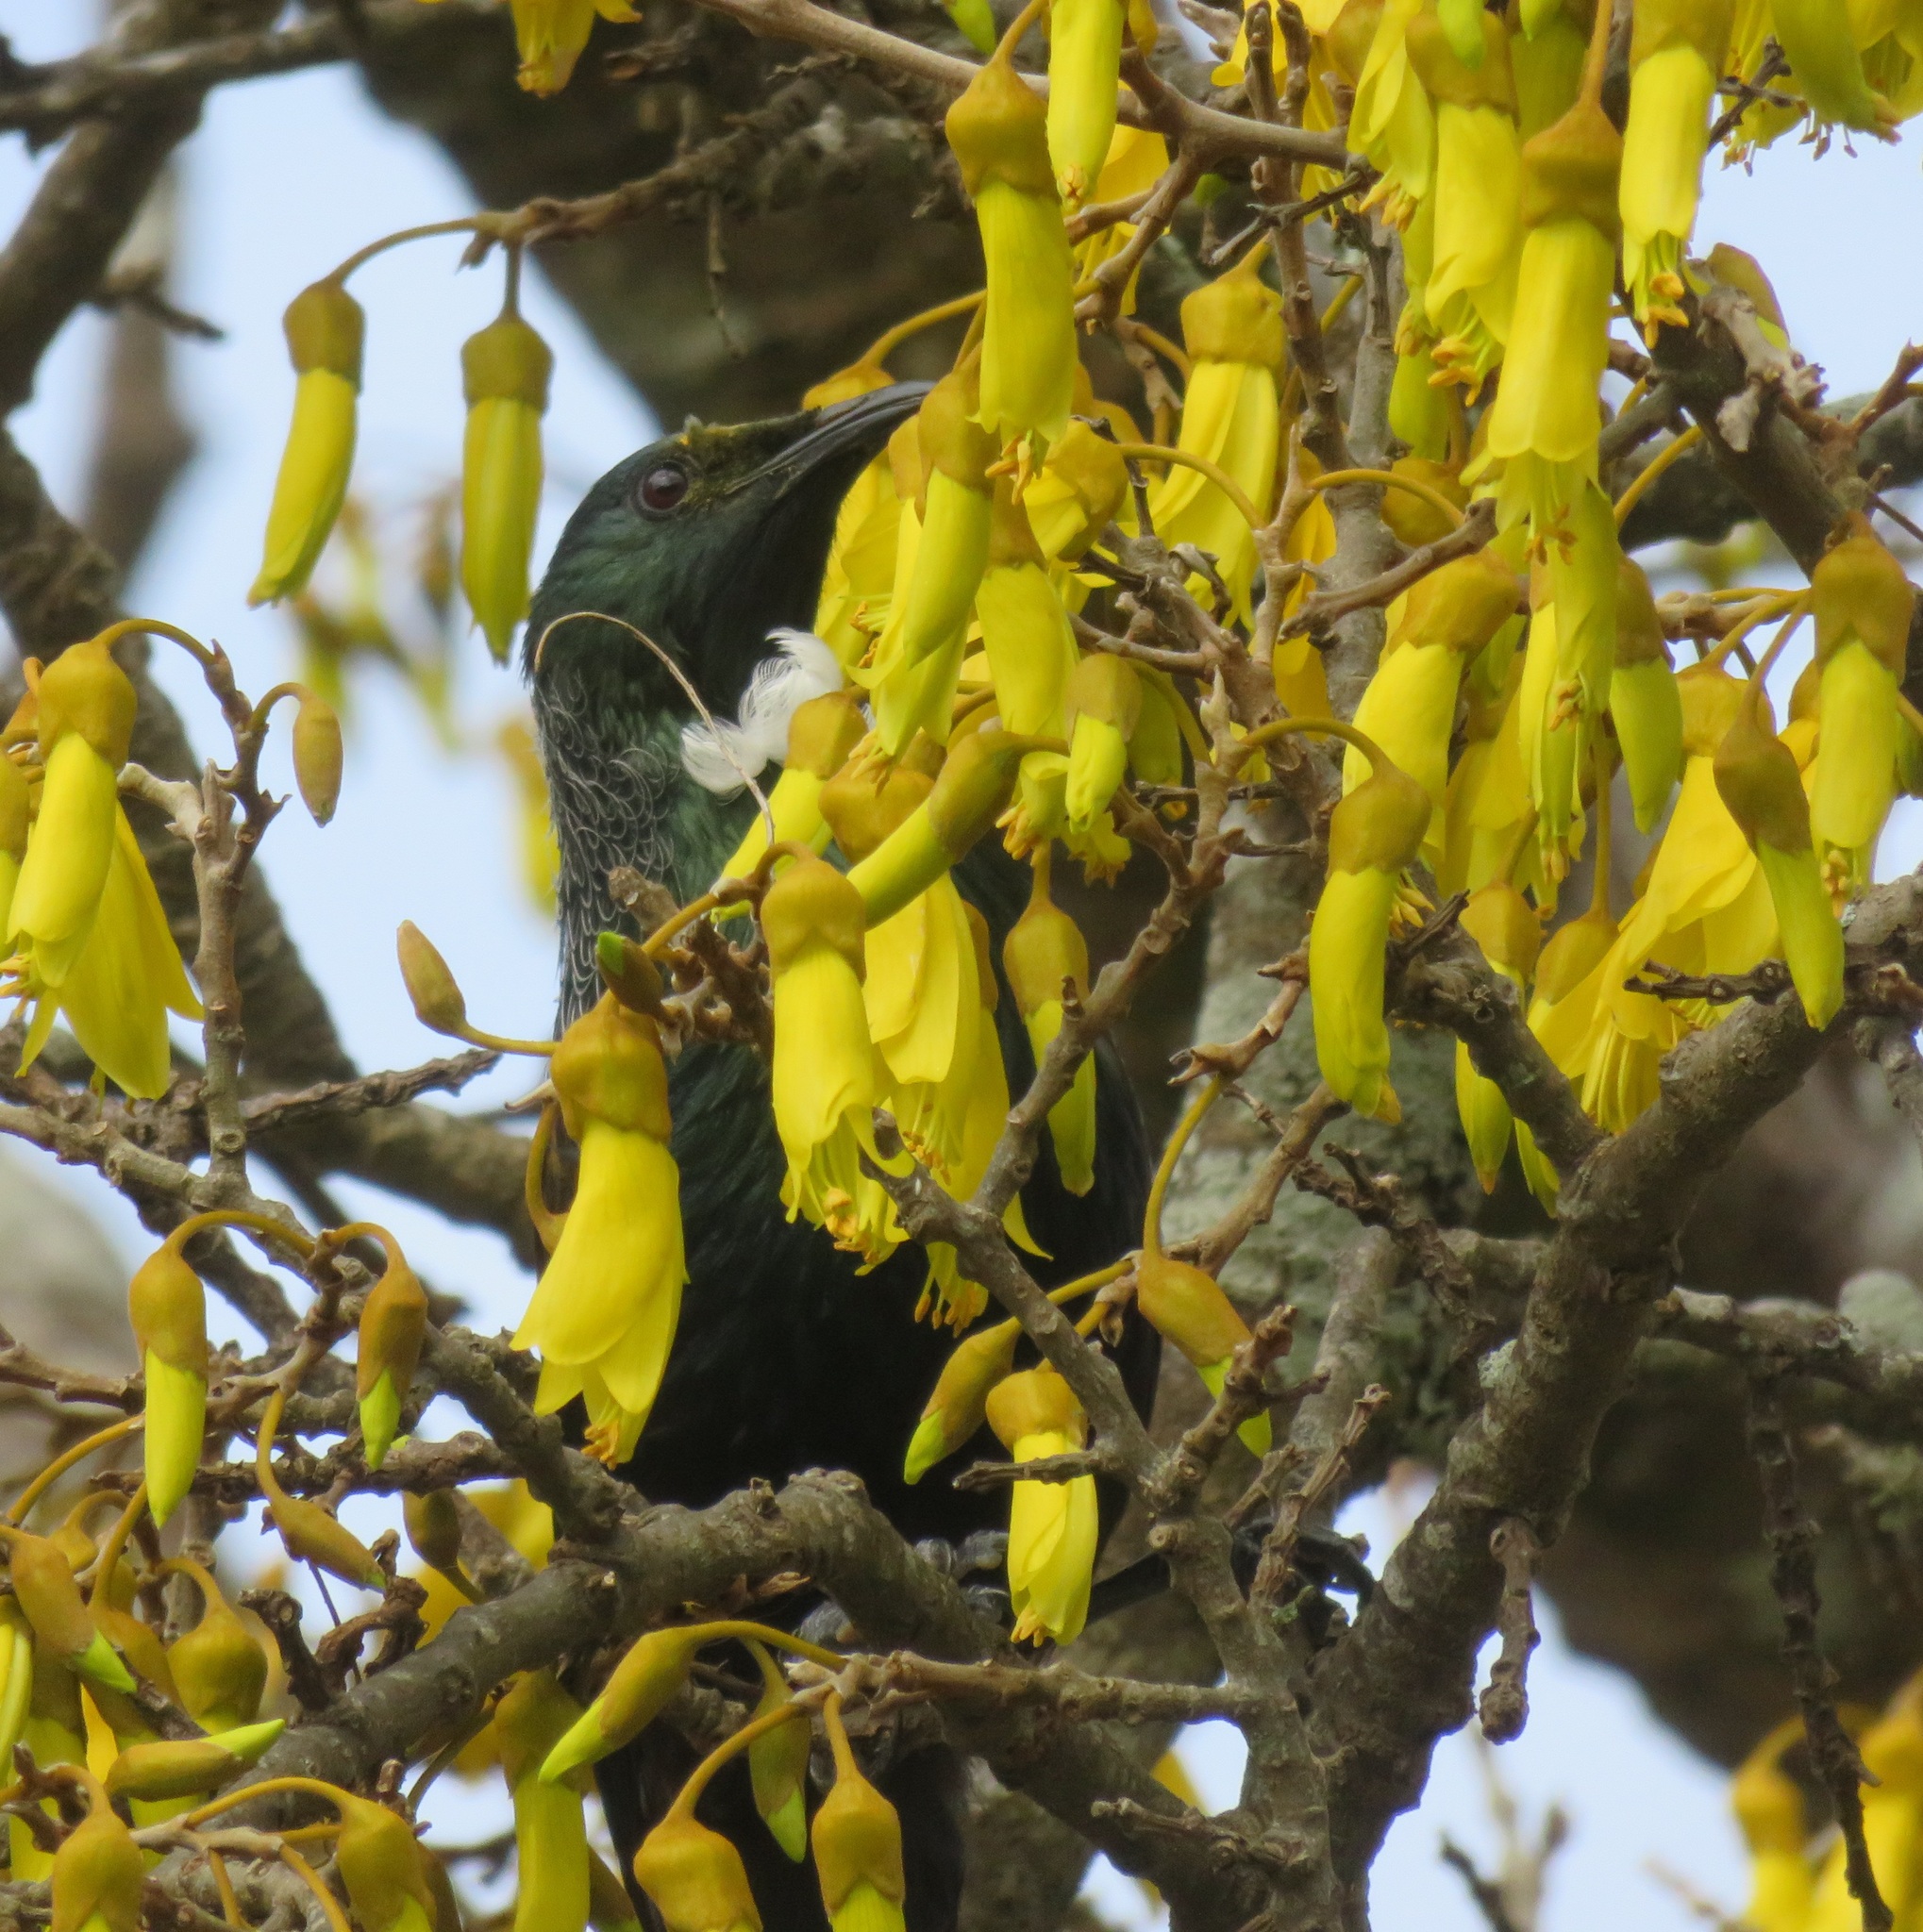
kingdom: Animalia
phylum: Chordata
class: Aves
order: Passeriformes
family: Meliphagidae
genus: Prosthemadera
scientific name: Prosthemadera novaeseelandiae
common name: Tui
